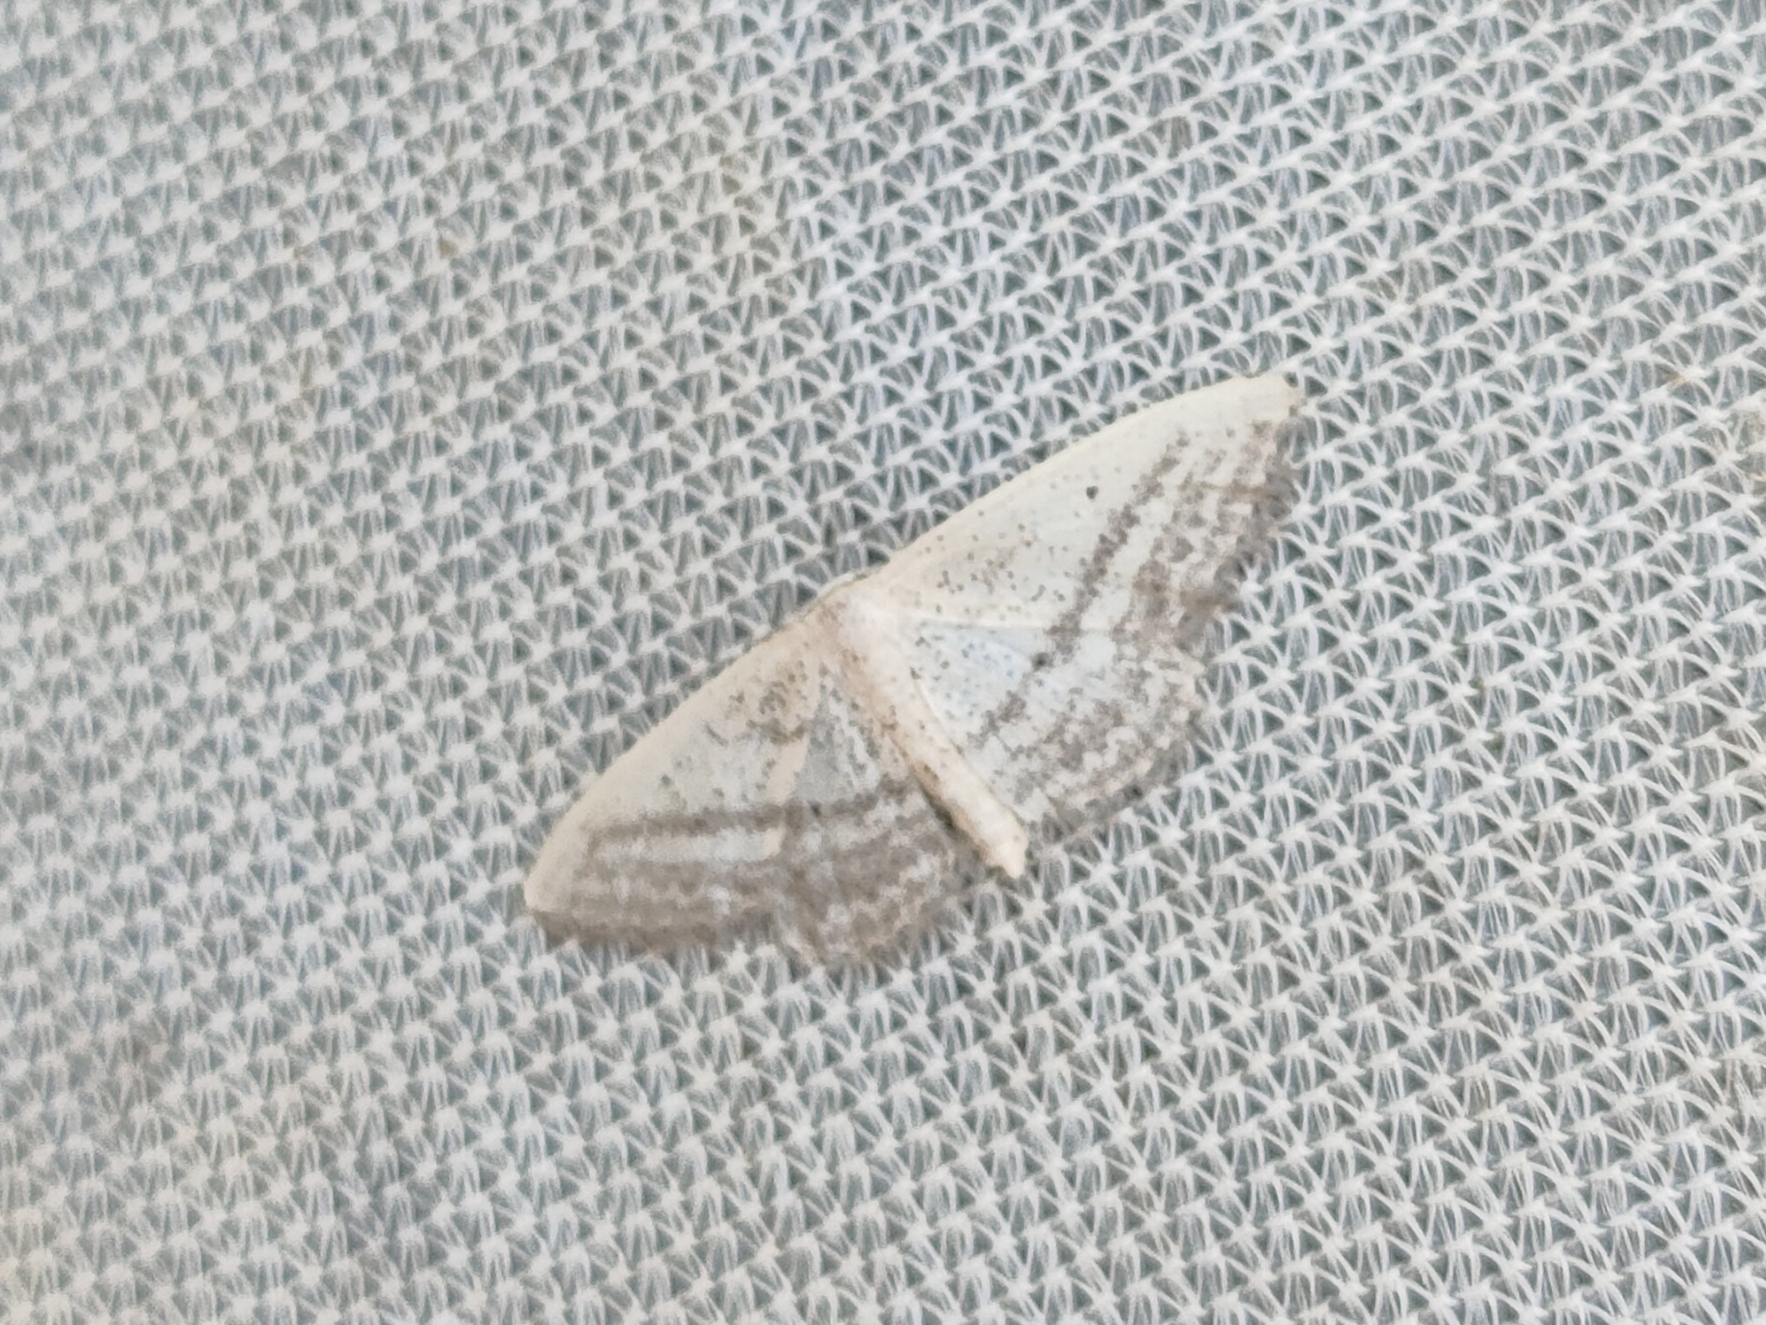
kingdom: Animalia
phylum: Arthropoda
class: Insecta
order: Lepidoptera
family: Geometridae
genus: Idaea
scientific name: Idaea mediaria
